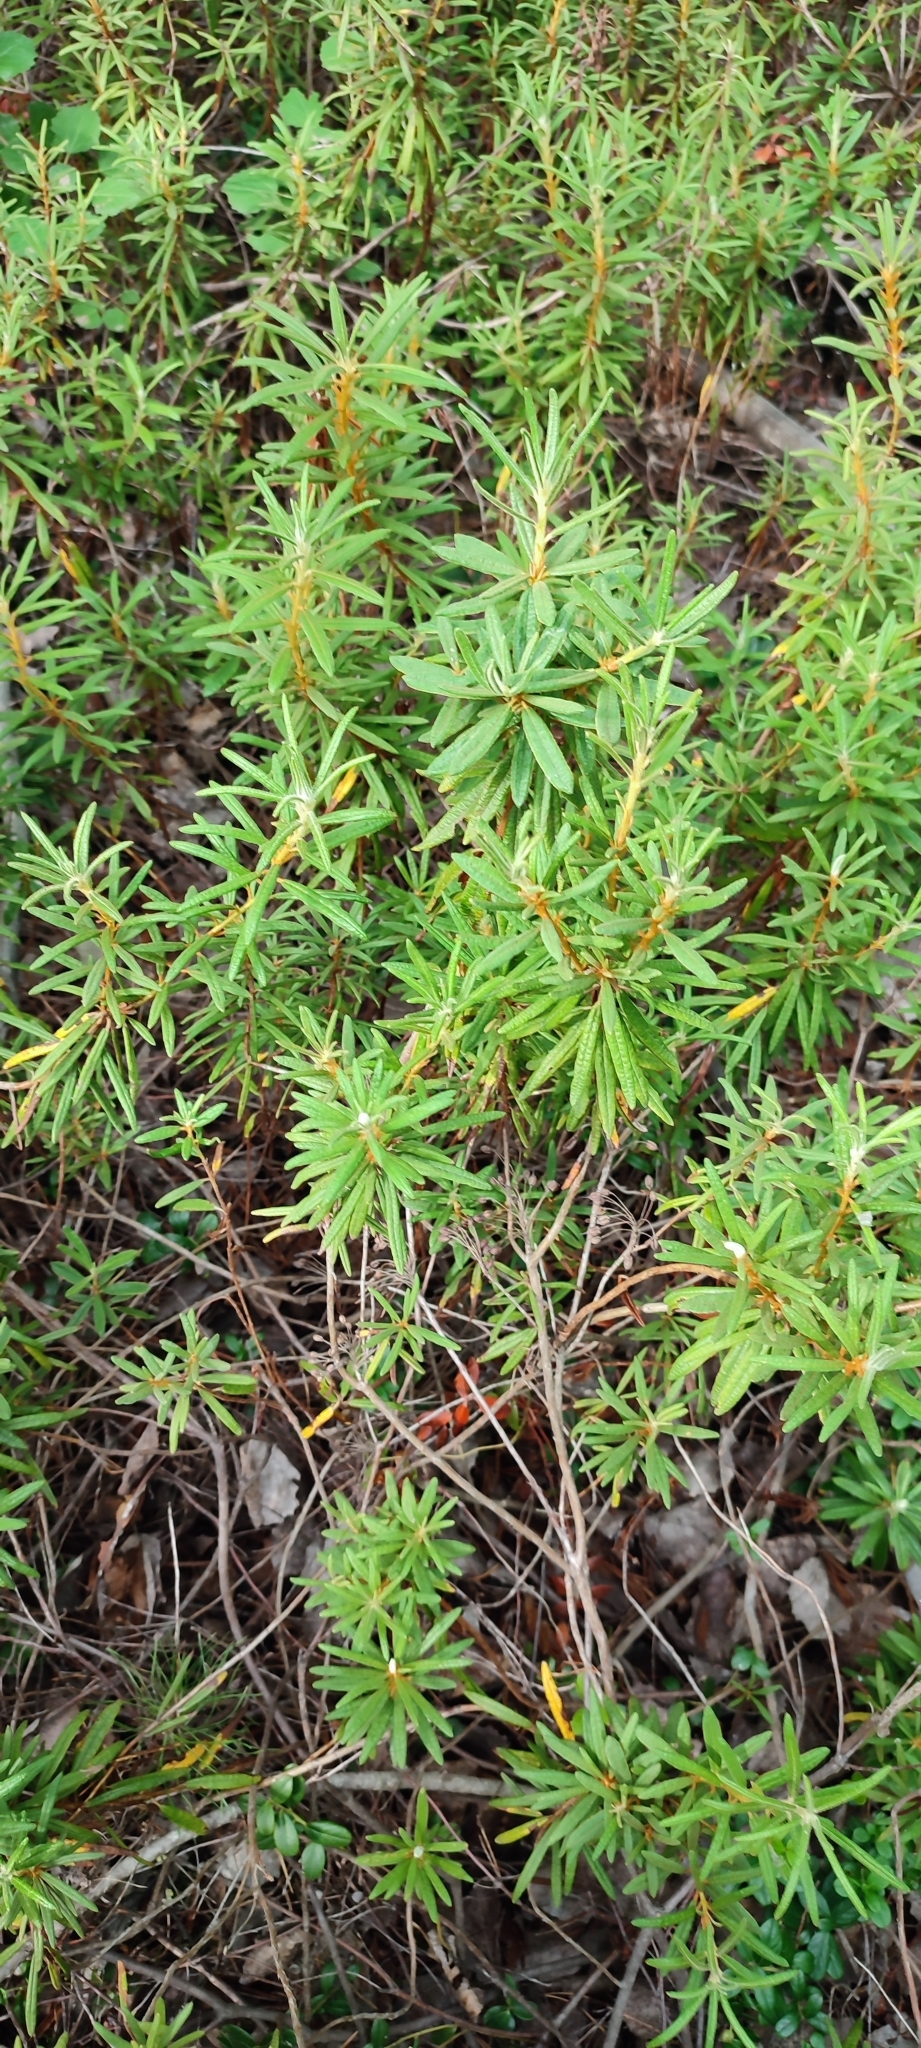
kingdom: Plantae
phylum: Tracheophyta
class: Magnoliopsida
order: Ericales
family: Ericaceae
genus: Rhododendron
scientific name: Rhododendron tomentosum
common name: Marsh labrador tea
